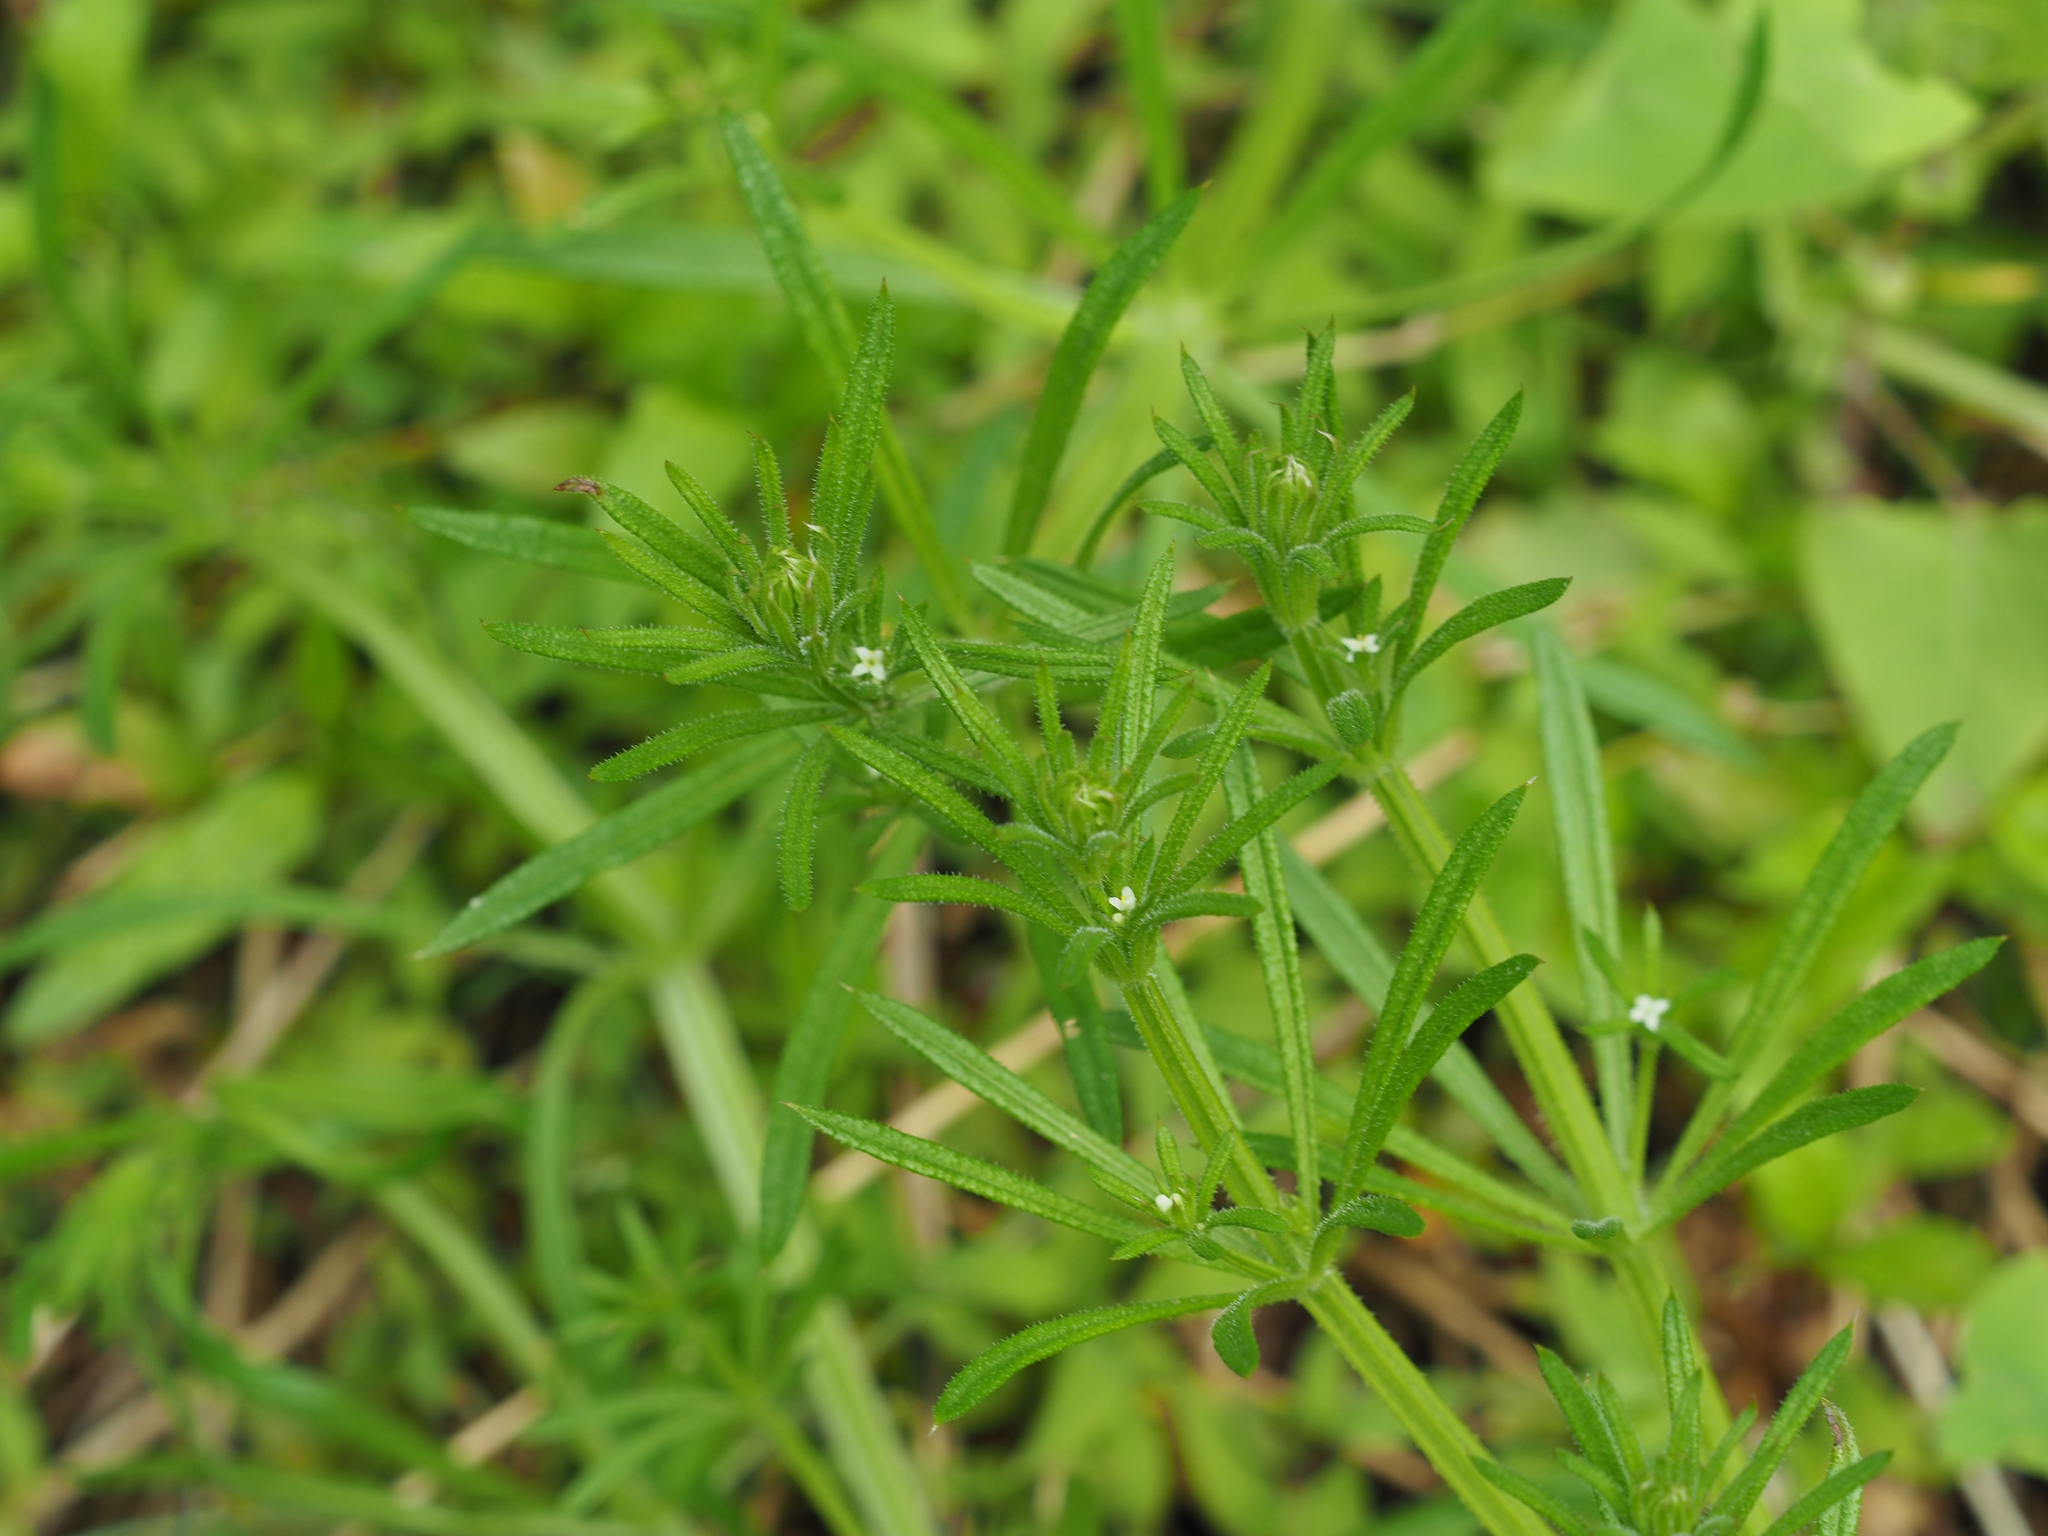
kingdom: Plantae
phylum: Tracheophyta
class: Magnoliopsida
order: Gentianales
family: Rubiaceae
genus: Galium
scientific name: Galium aparine
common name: Cleavers
